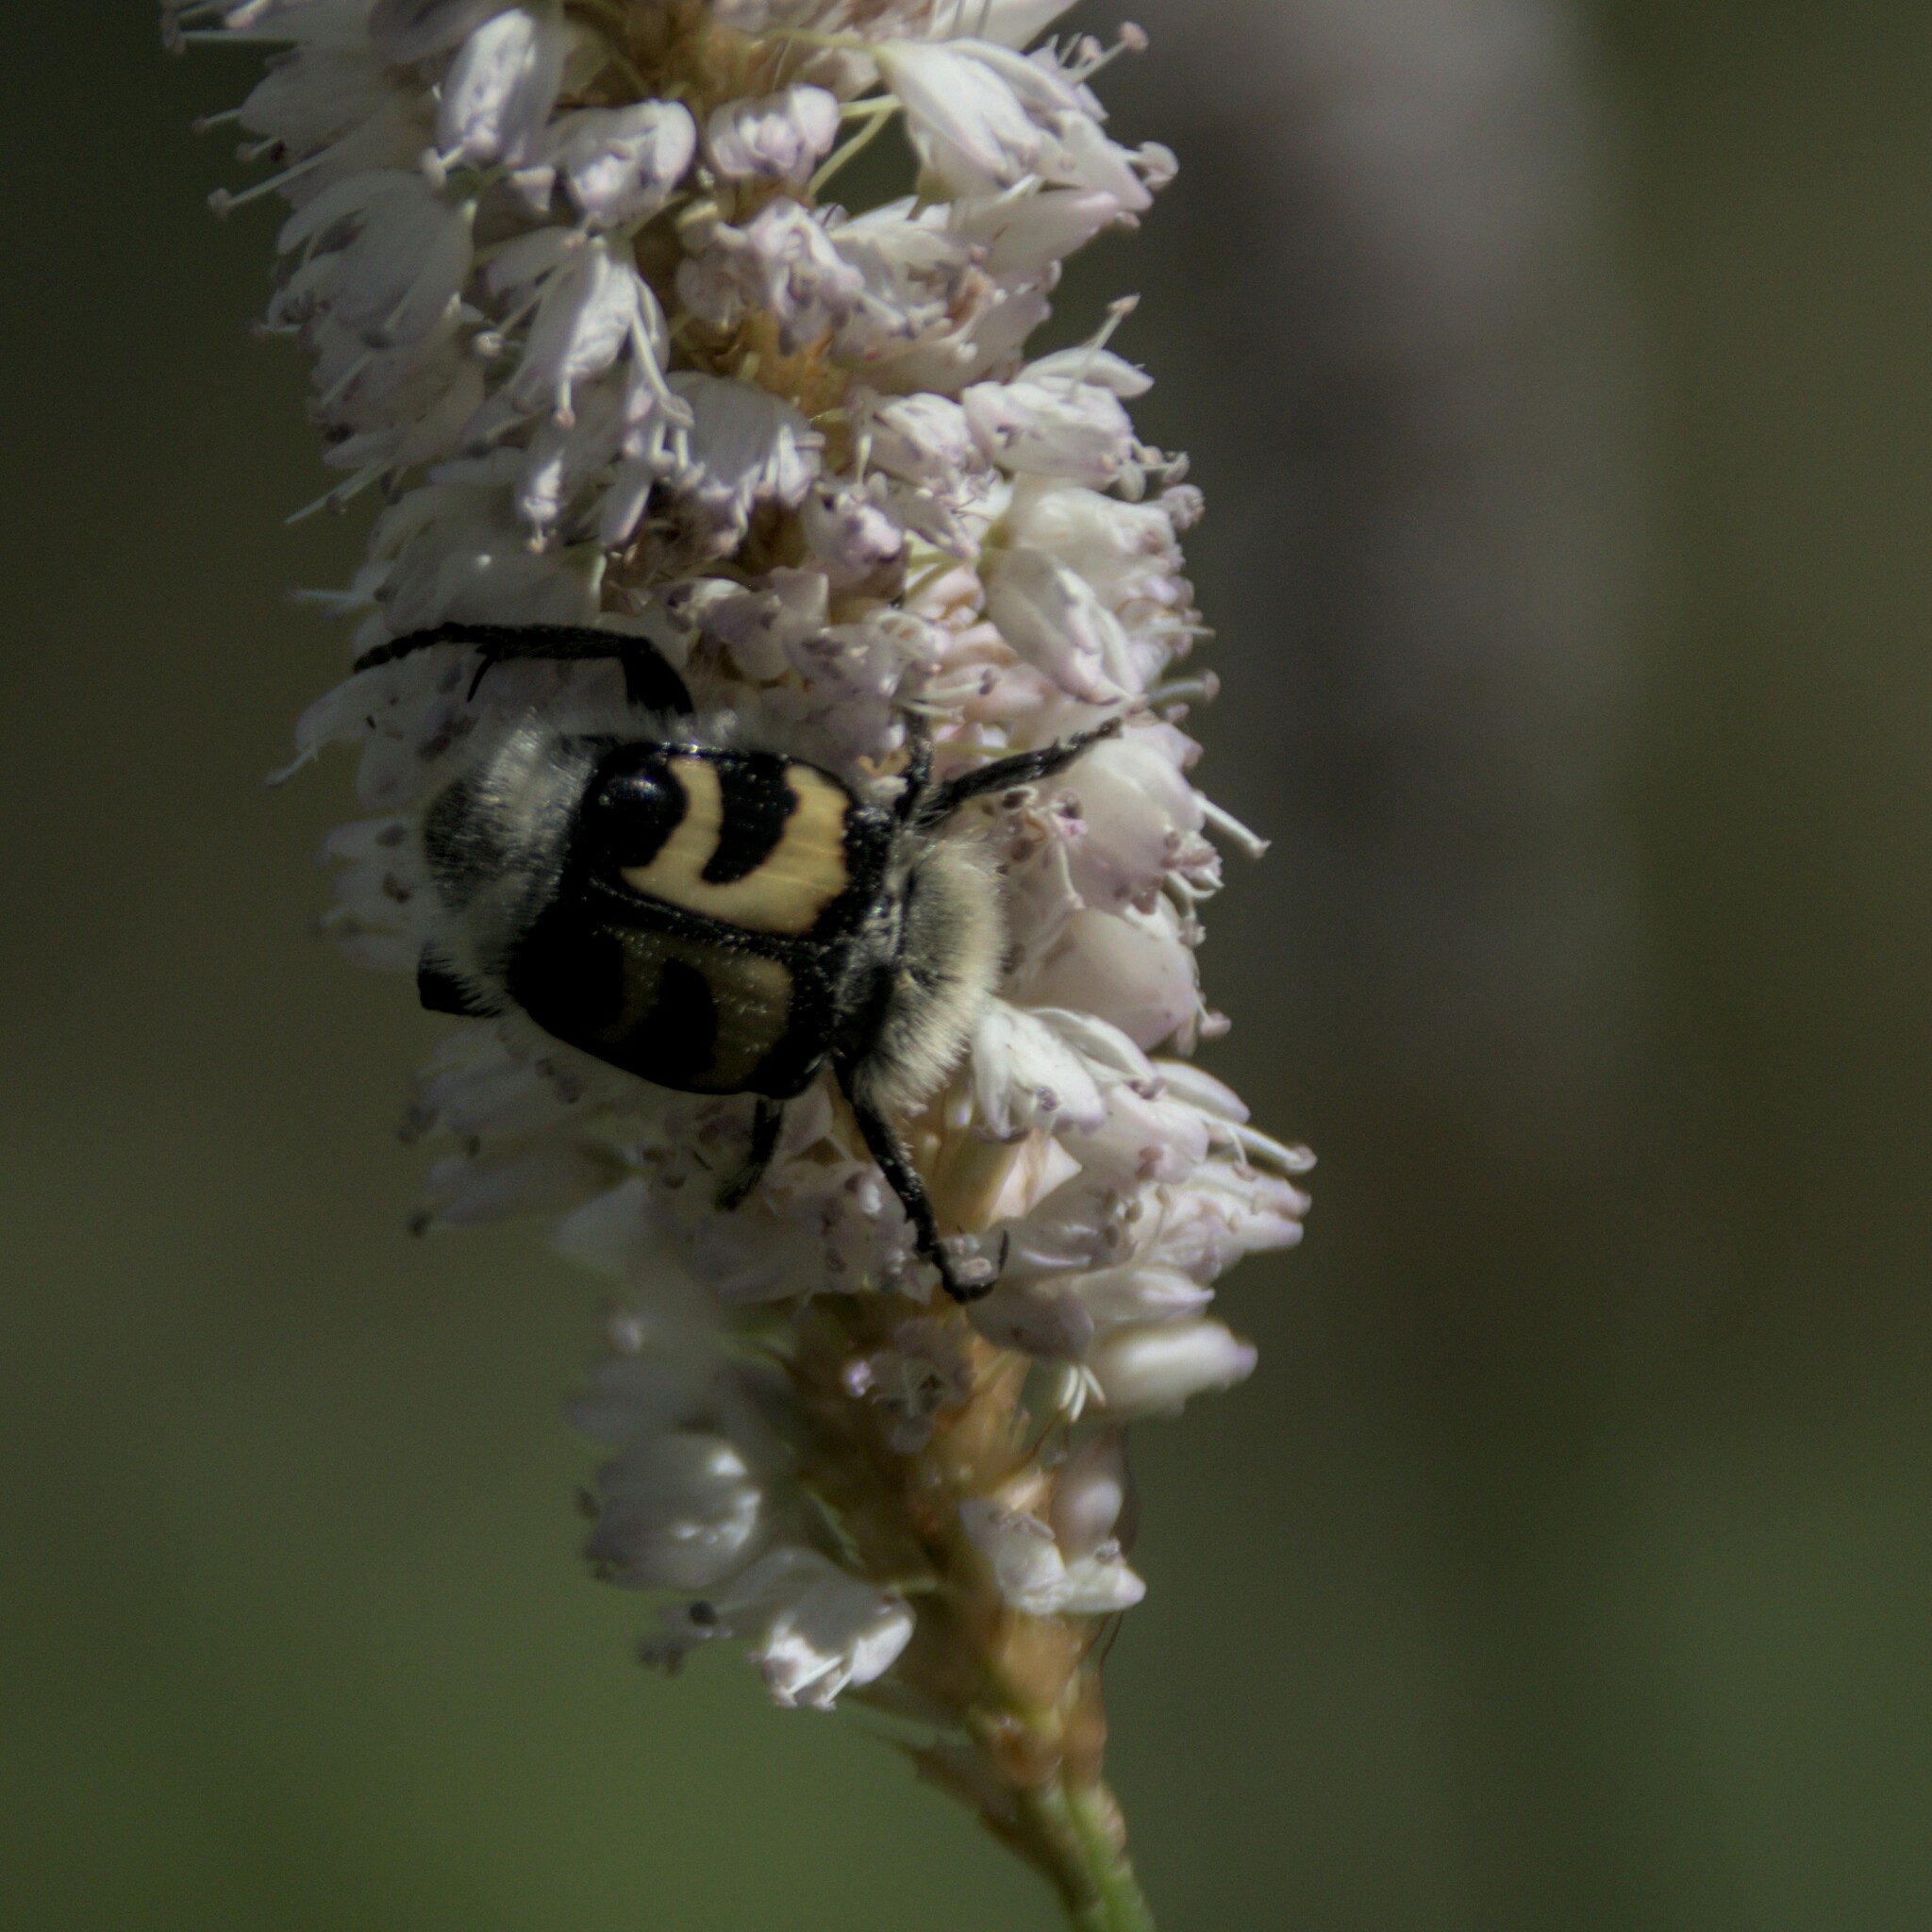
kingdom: Animalia
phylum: Arthropoda
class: Insecta
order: Coleoptera
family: Scarabaeidae
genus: Trichius
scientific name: Trichius fasciatus
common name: Bee beetle
